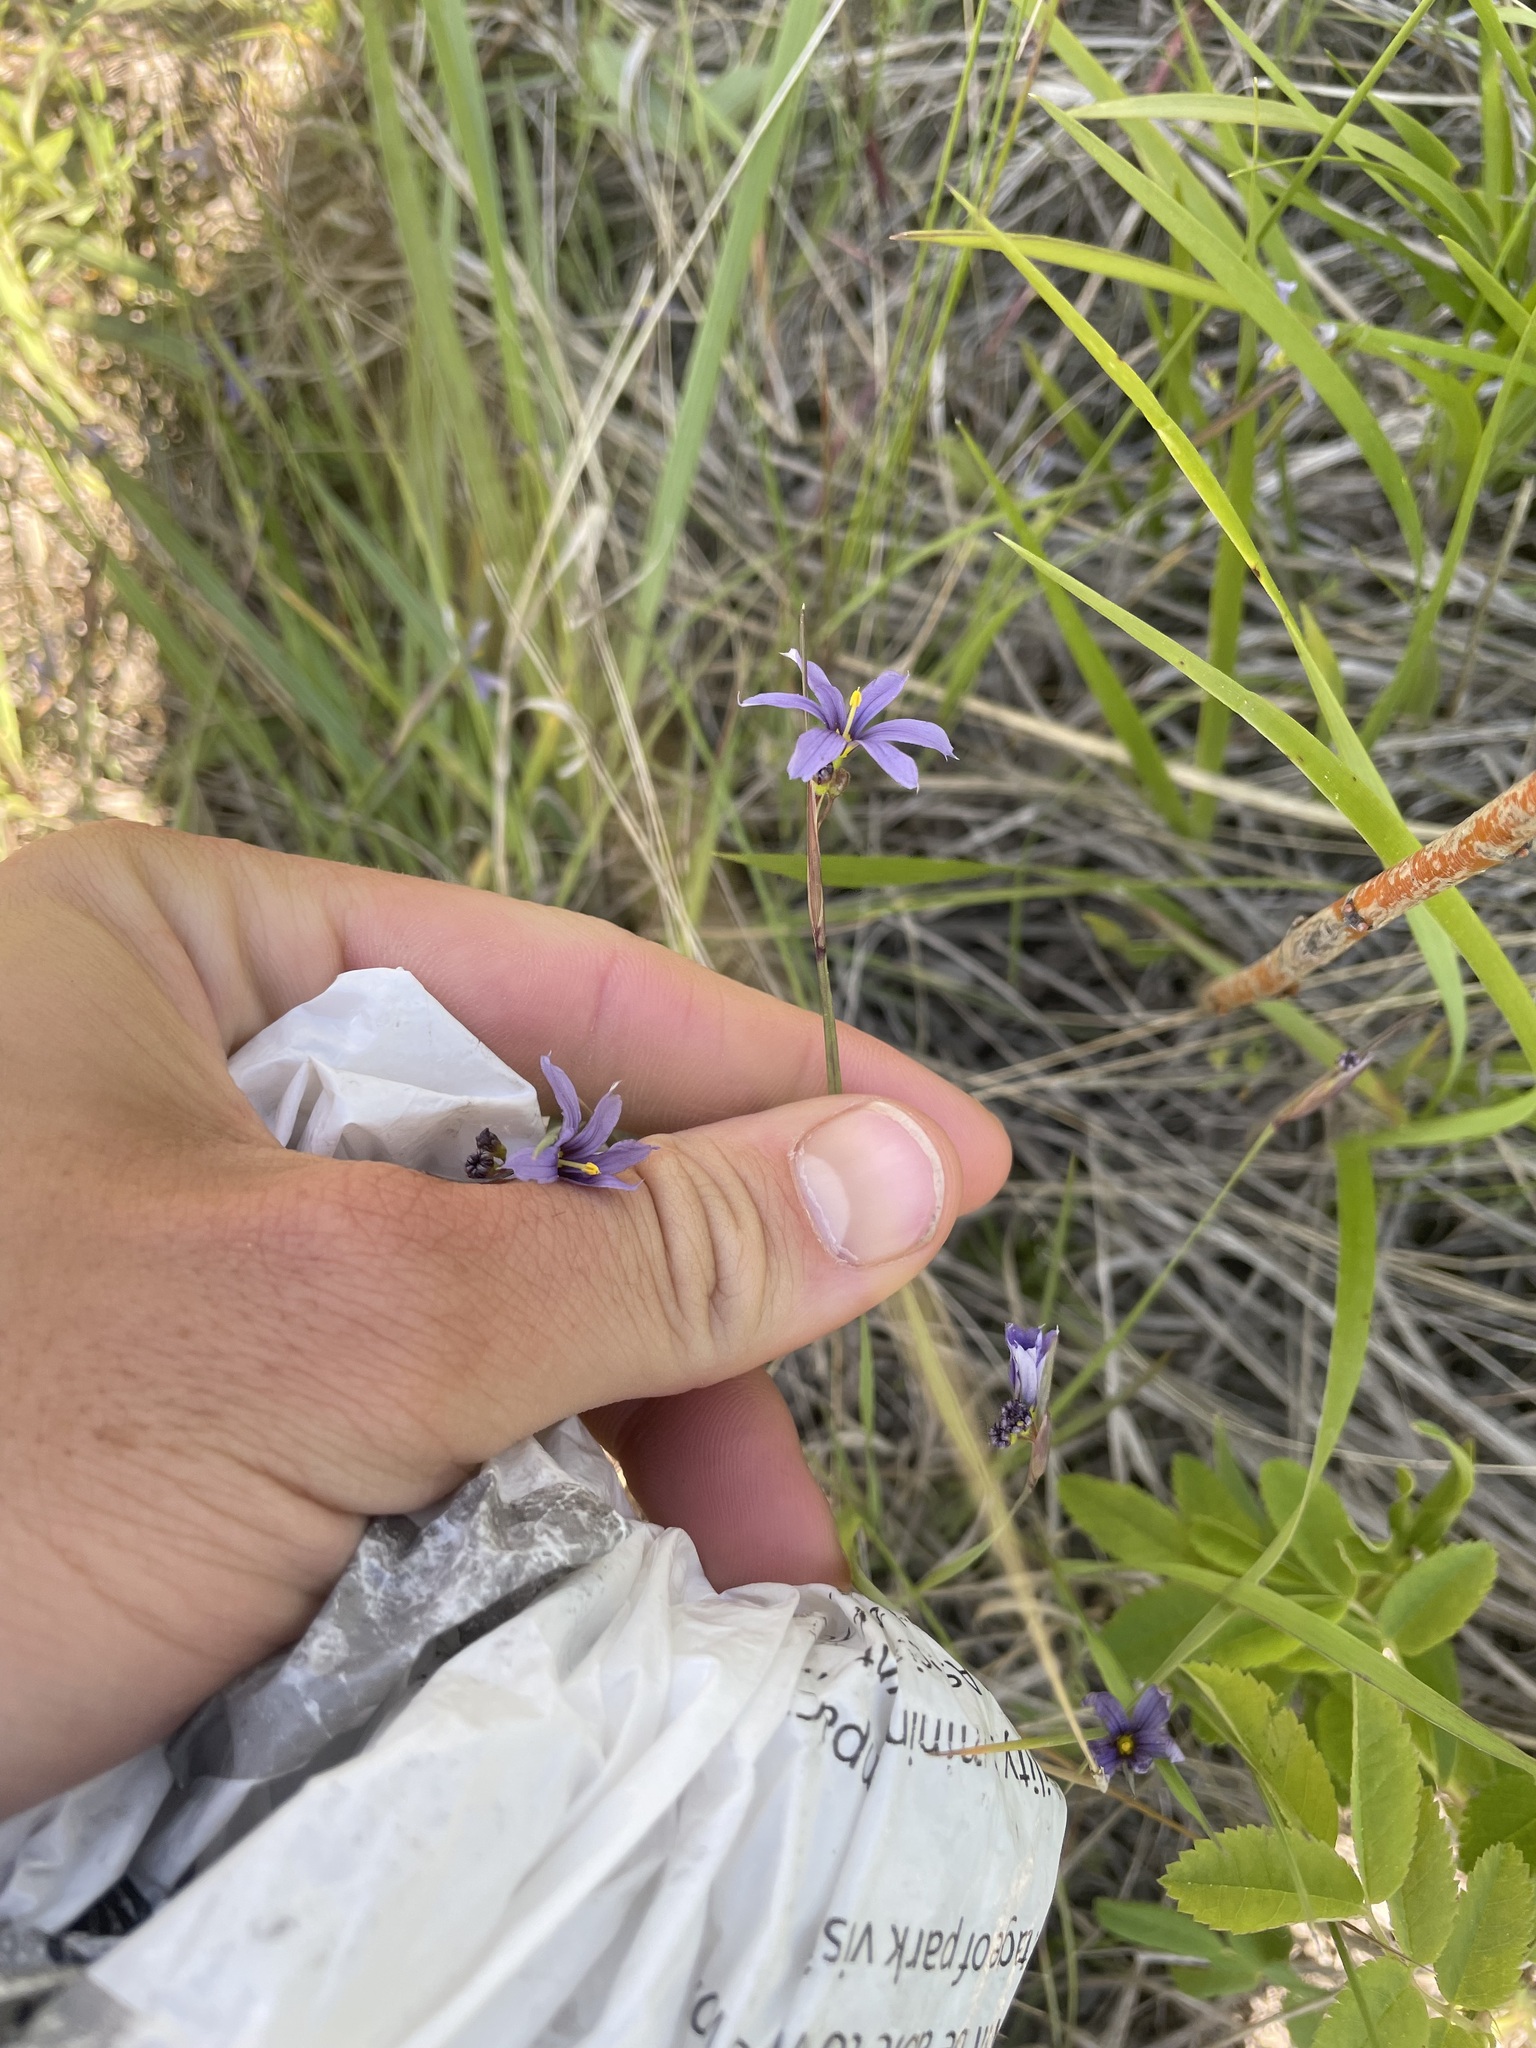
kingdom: Plantae
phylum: Tracheophyta
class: Liliopsida
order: Asparagales
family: Iridaceae
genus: Sisyrinchium
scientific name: Sisyrinchium montanum
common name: American blue-eyed-grass
